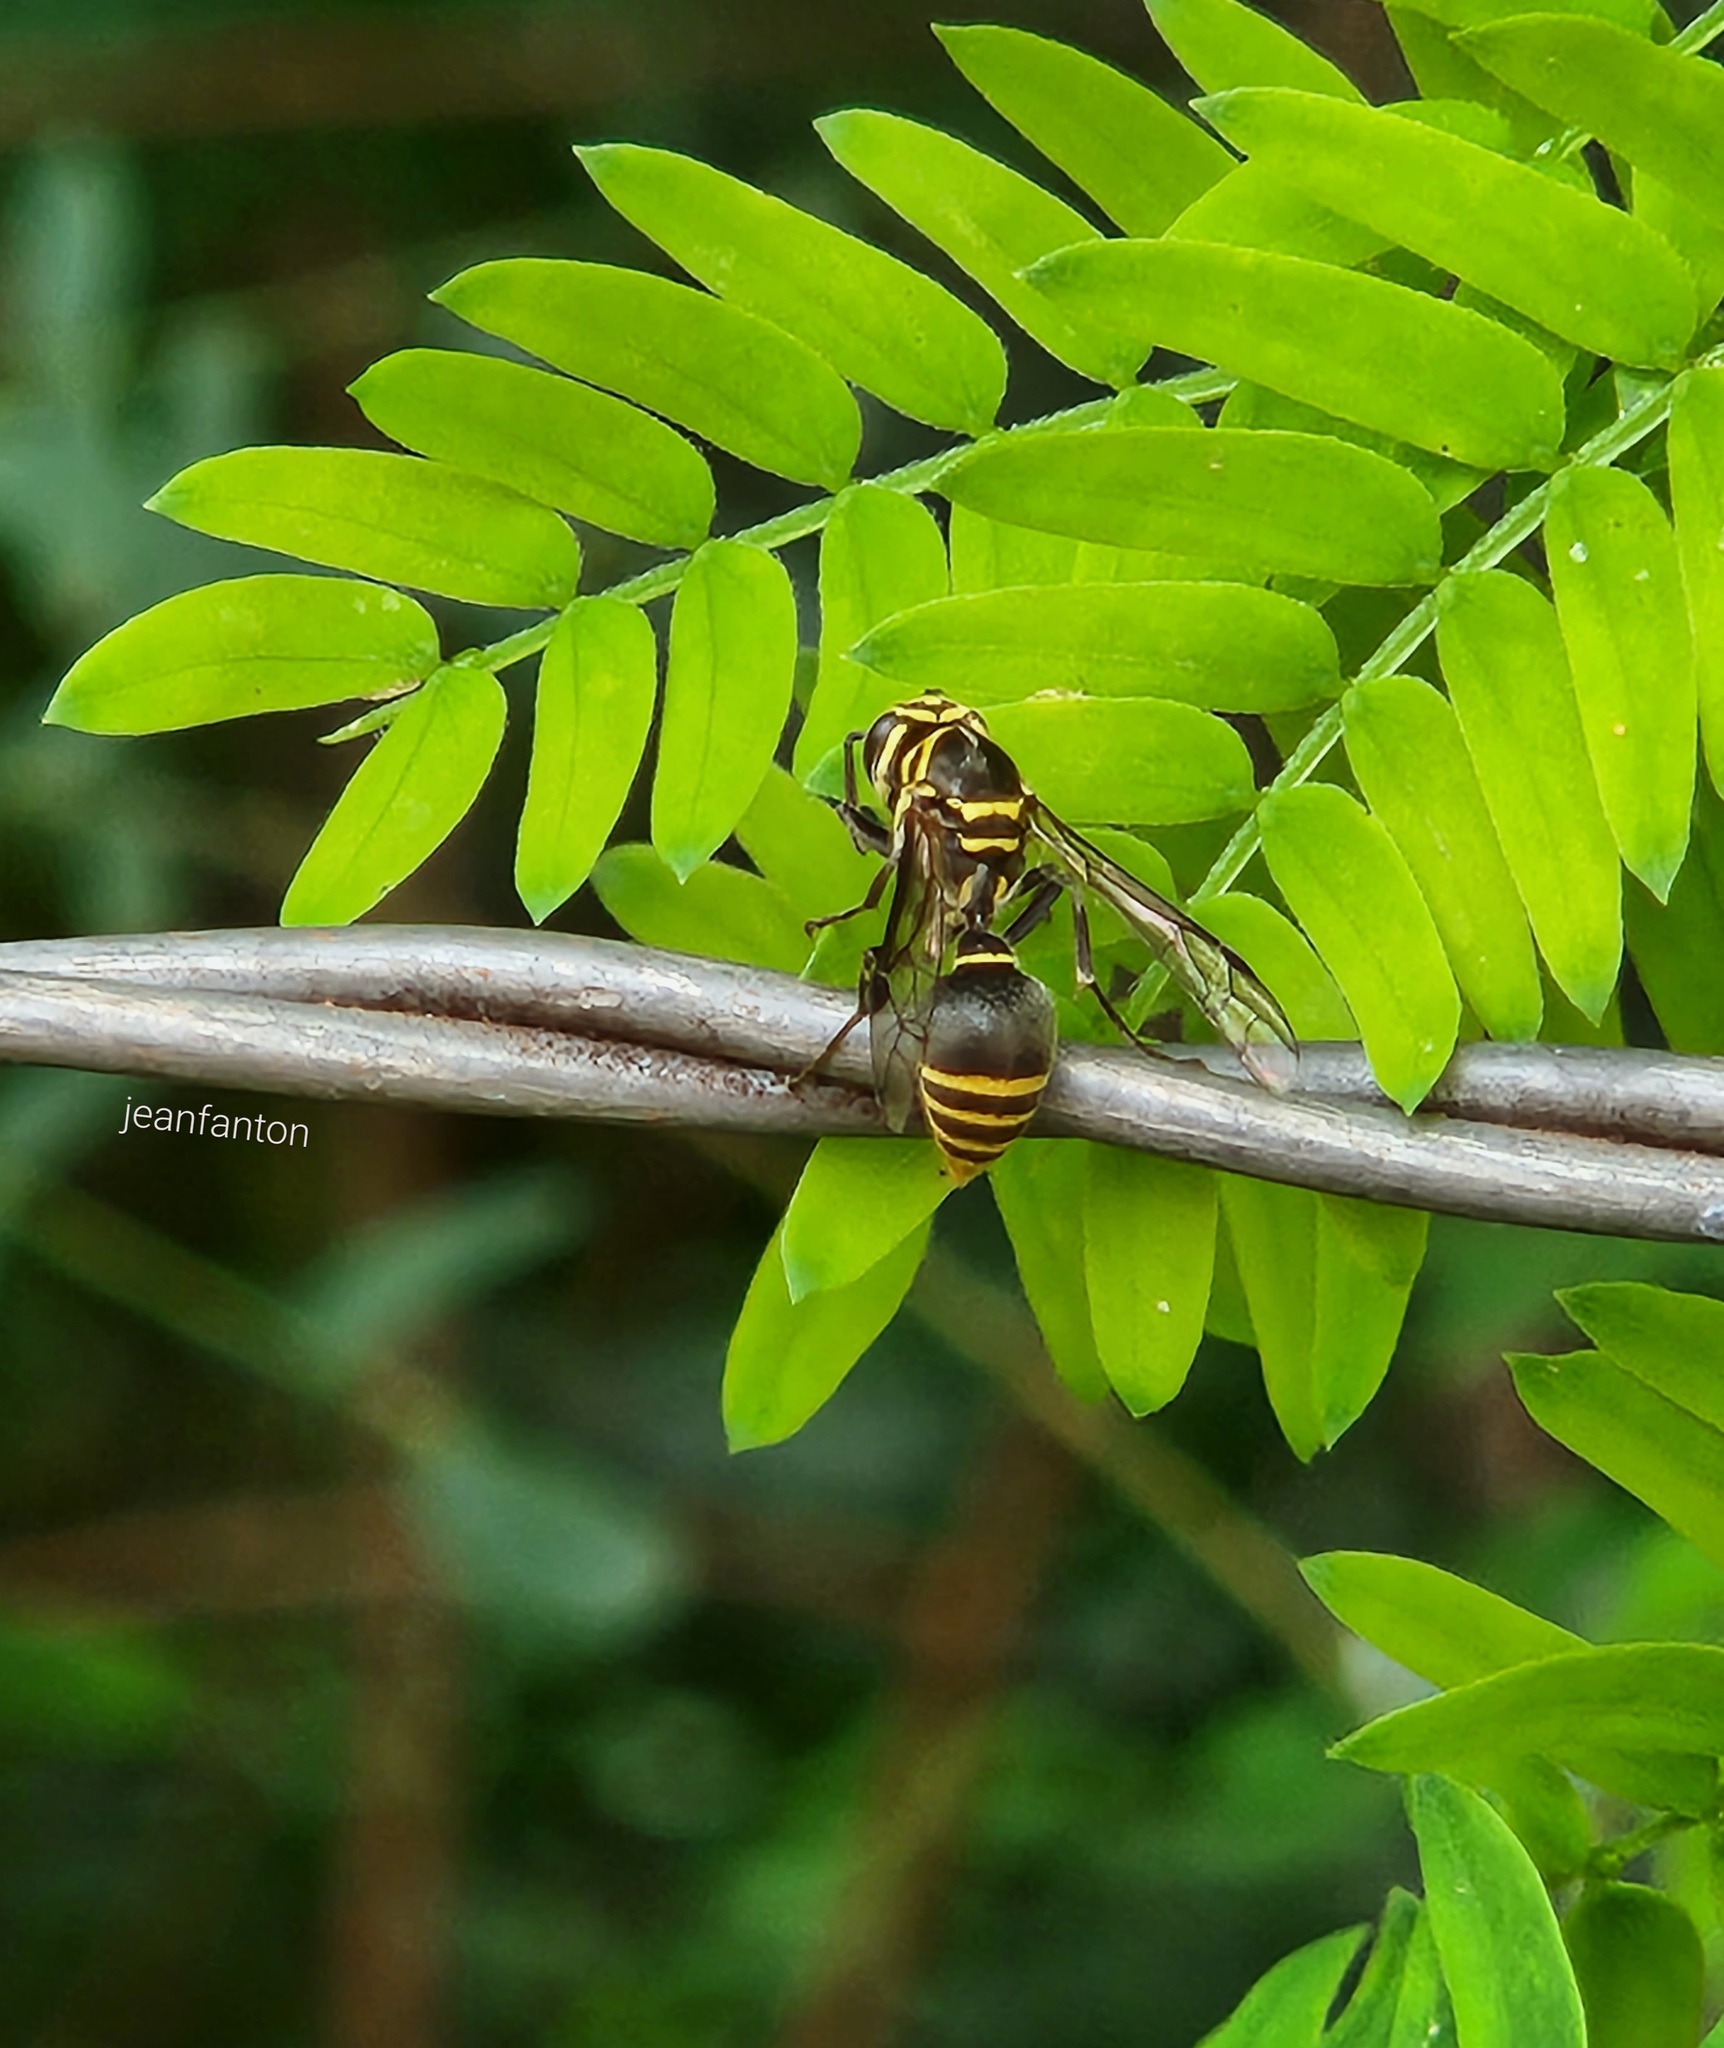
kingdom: Animalia
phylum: Arthropoda
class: Insecta
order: Hymenoptera
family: Vespidae
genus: Protonectarina
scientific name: Protonectarina sylveirae
